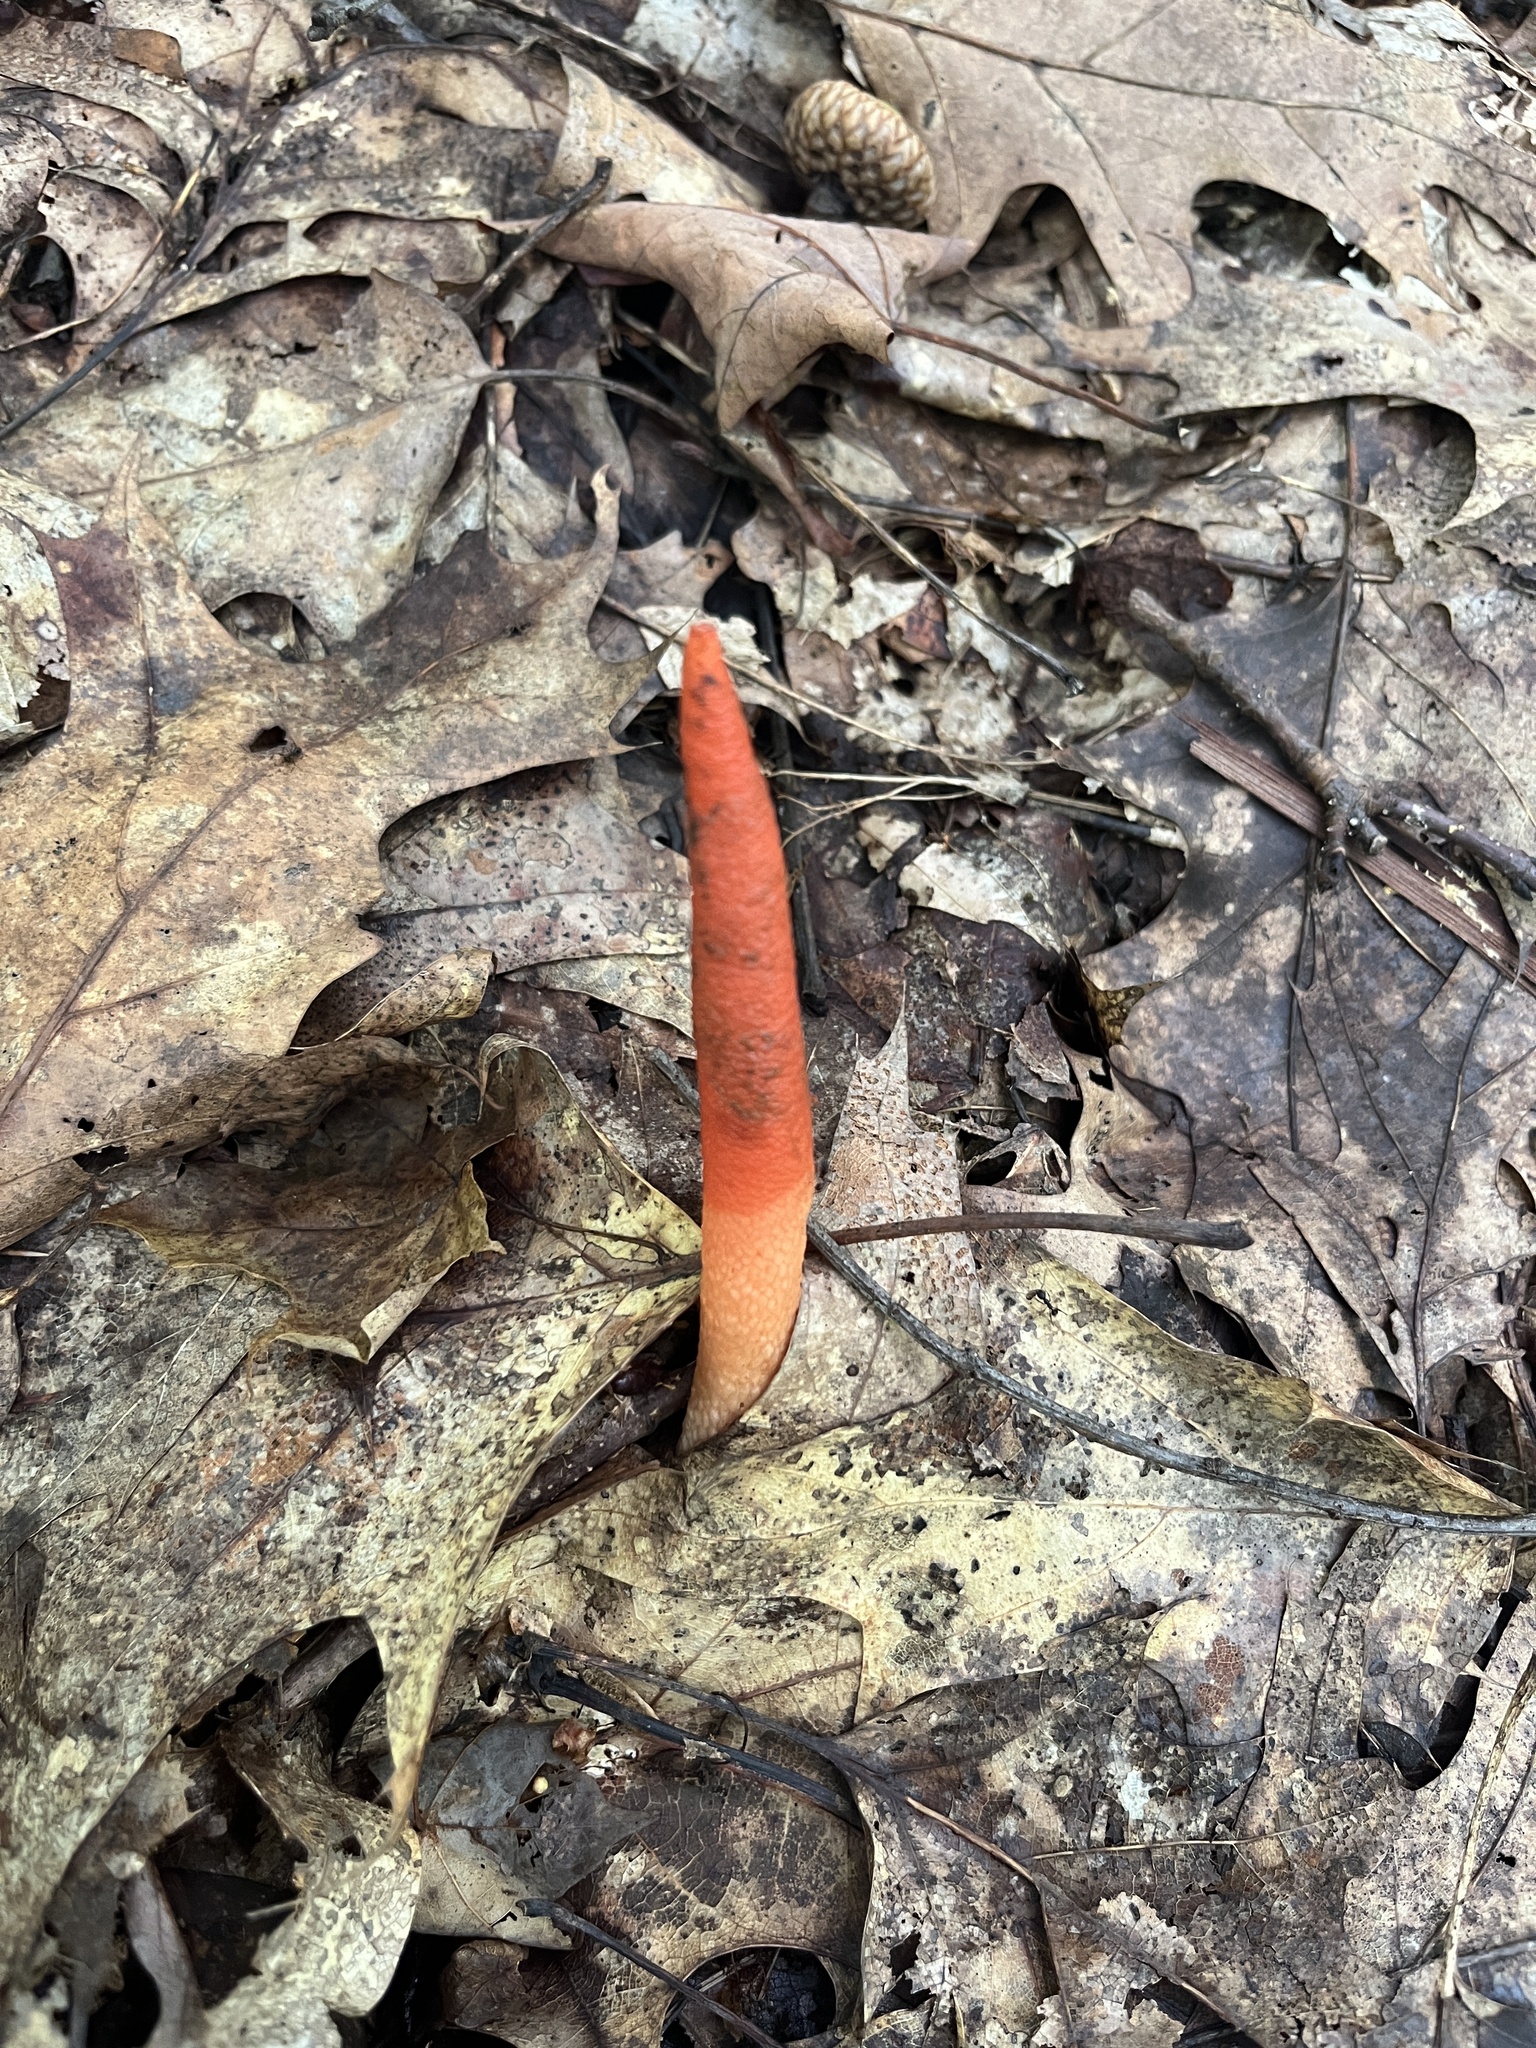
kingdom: Fungi
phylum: Basidiomycota
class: Agaricomycetes
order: Phallales
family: Phallaceae
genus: Mutinus
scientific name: Mutinus elegans
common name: Devil's dipstick
